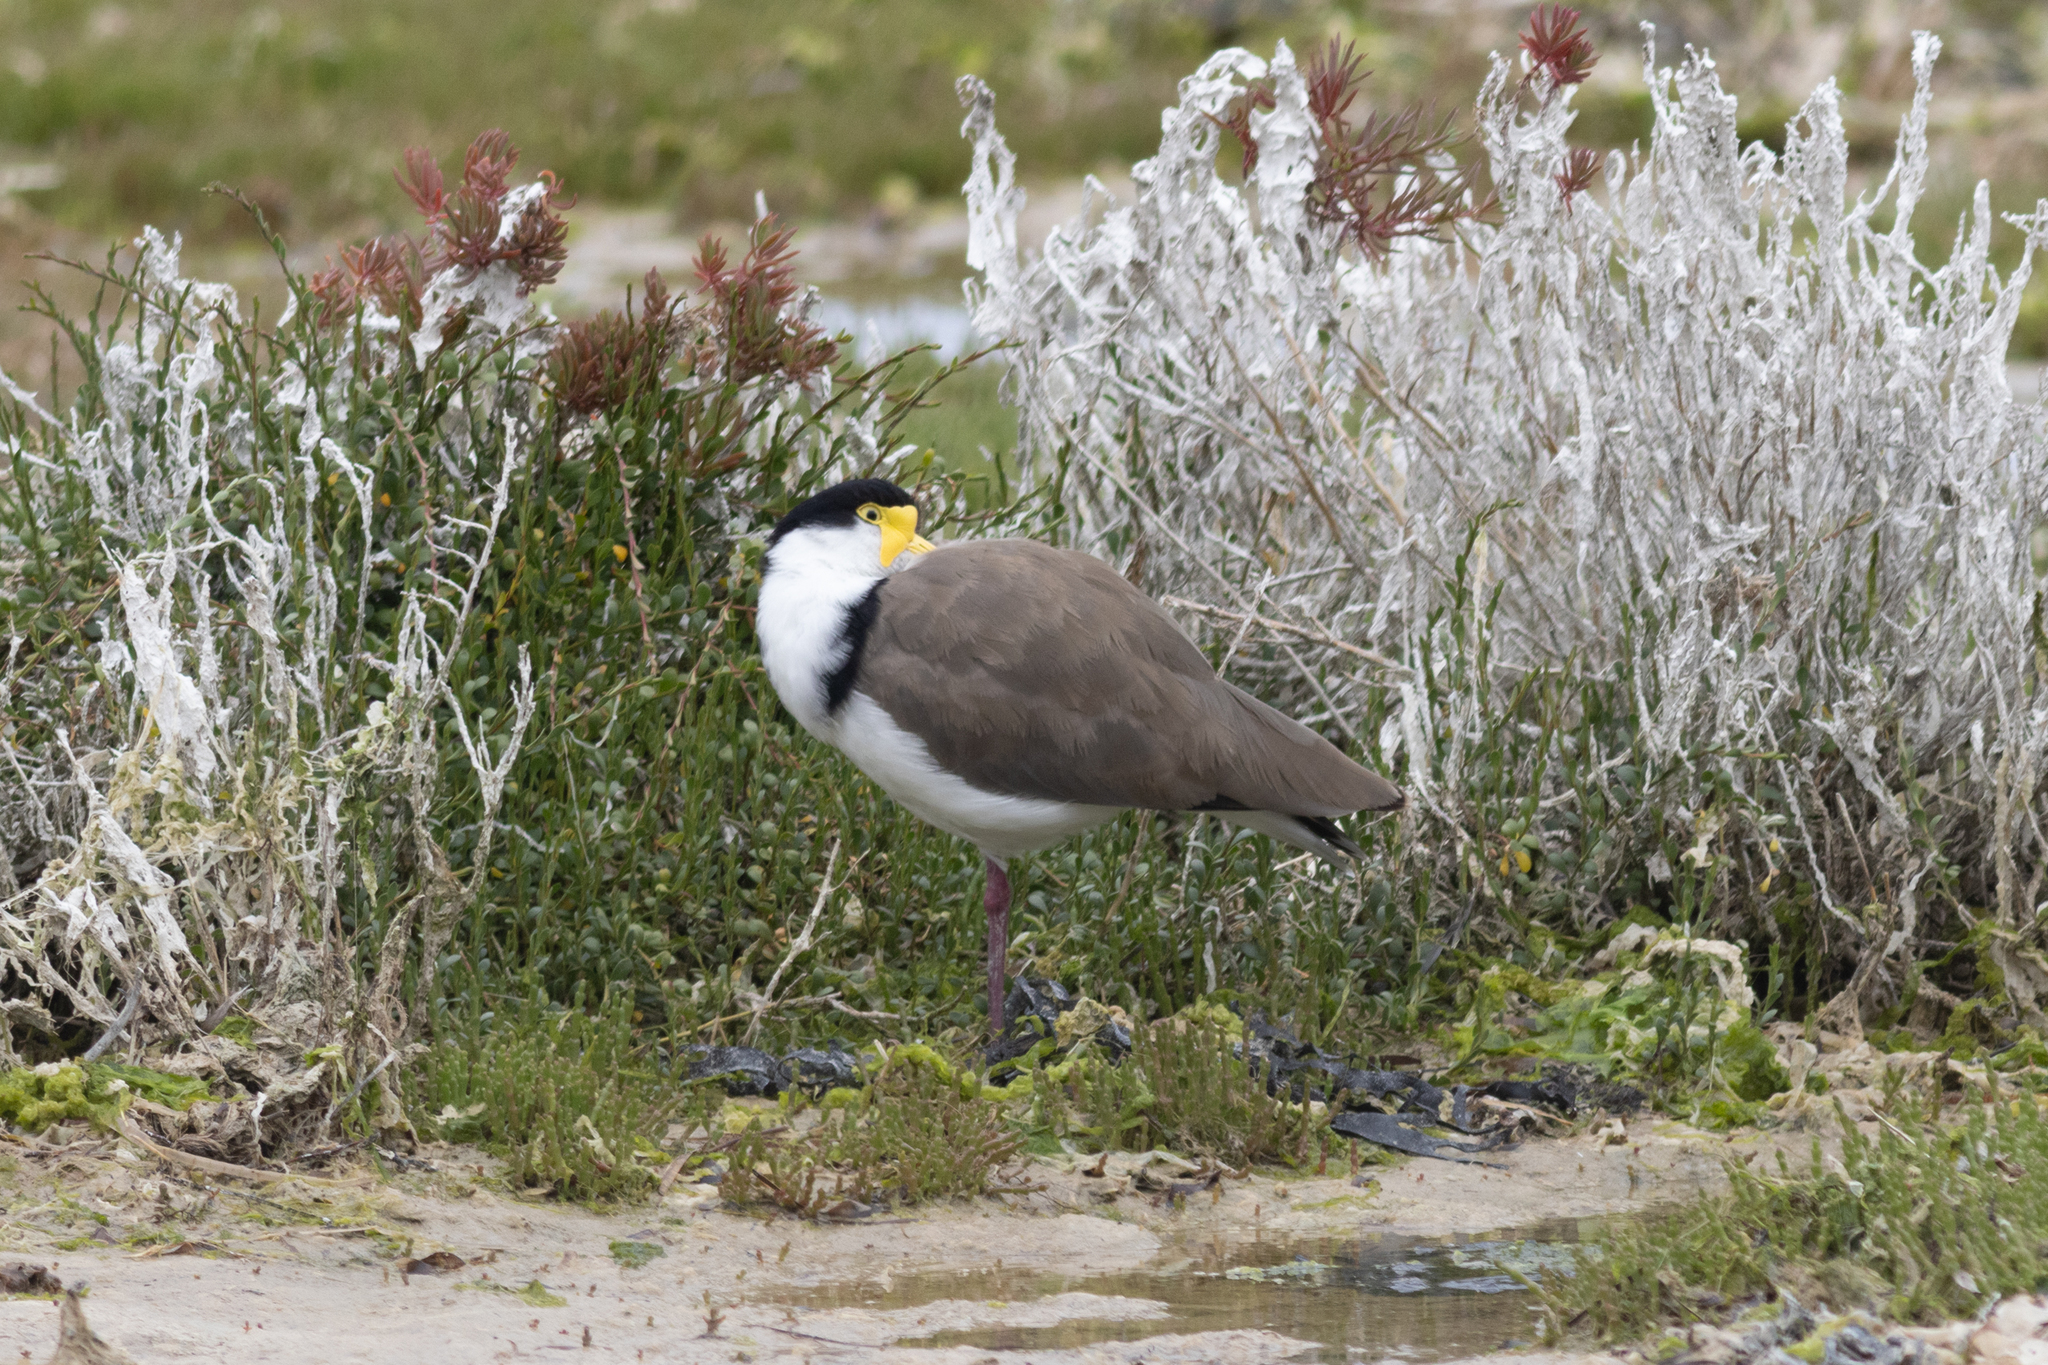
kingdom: Animalia
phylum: Chordata
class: Aves
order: Charadriiformes
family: Charadriidae
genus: Vanellus
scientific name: Vanellus miles
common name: Masked lapwing
